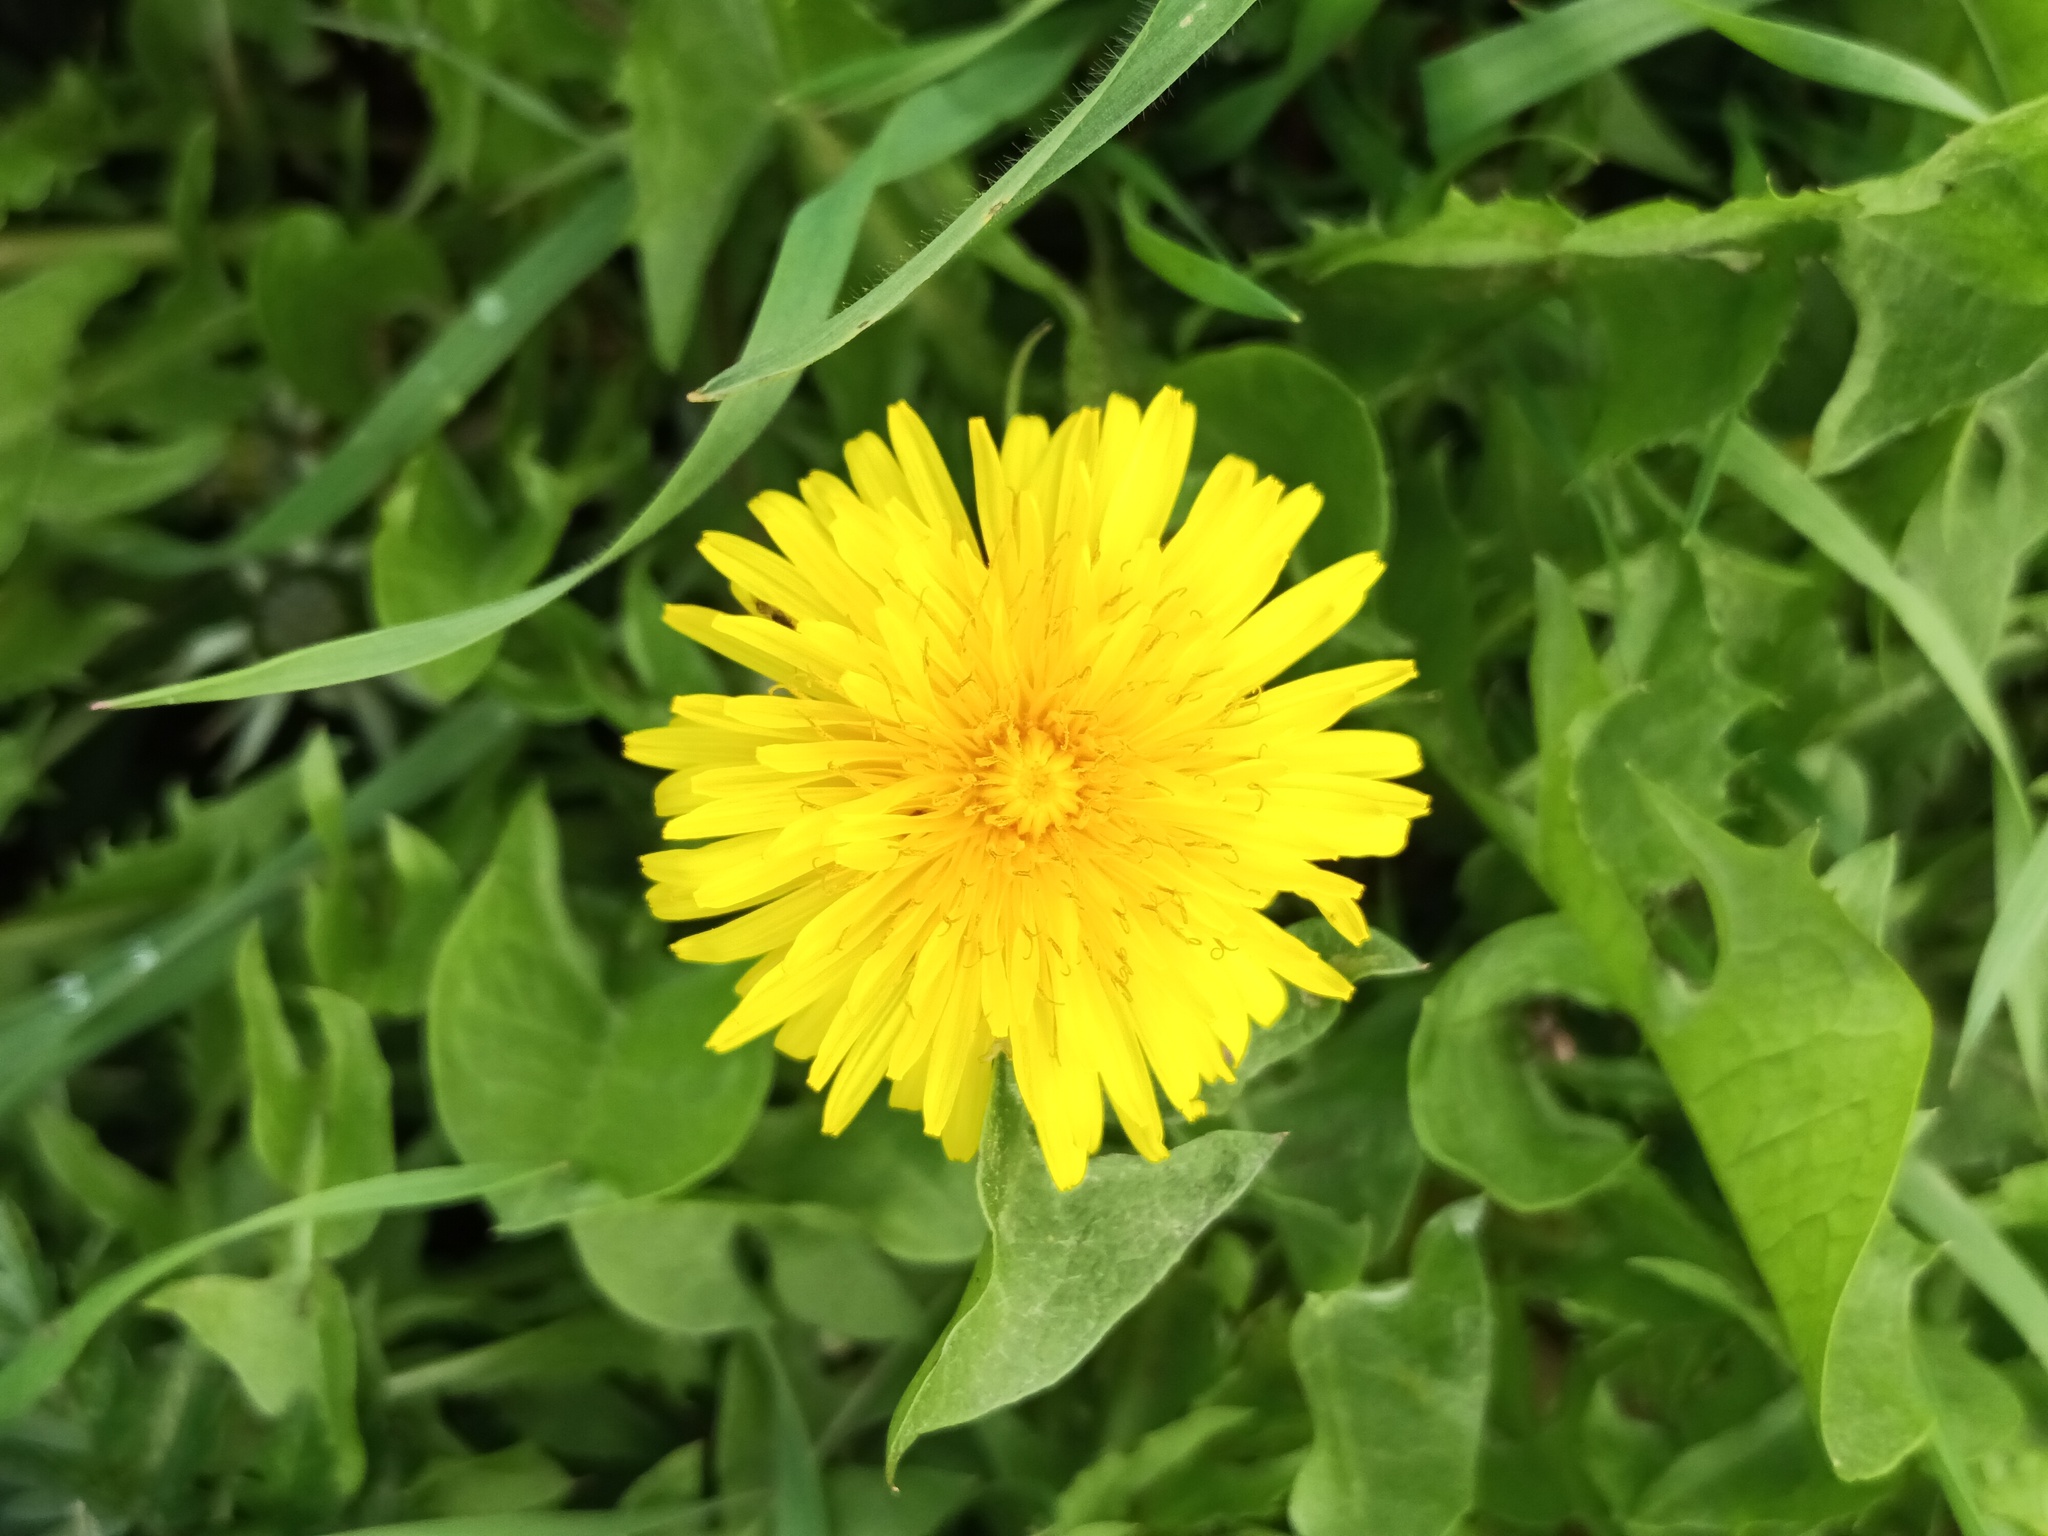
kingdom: Plantae
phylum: Tracheophyta
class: Magnoliopsida
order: Asterales
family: Asteraceae
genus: Taraxacum
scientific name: Taraxacum officinale
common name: Common dandelion
